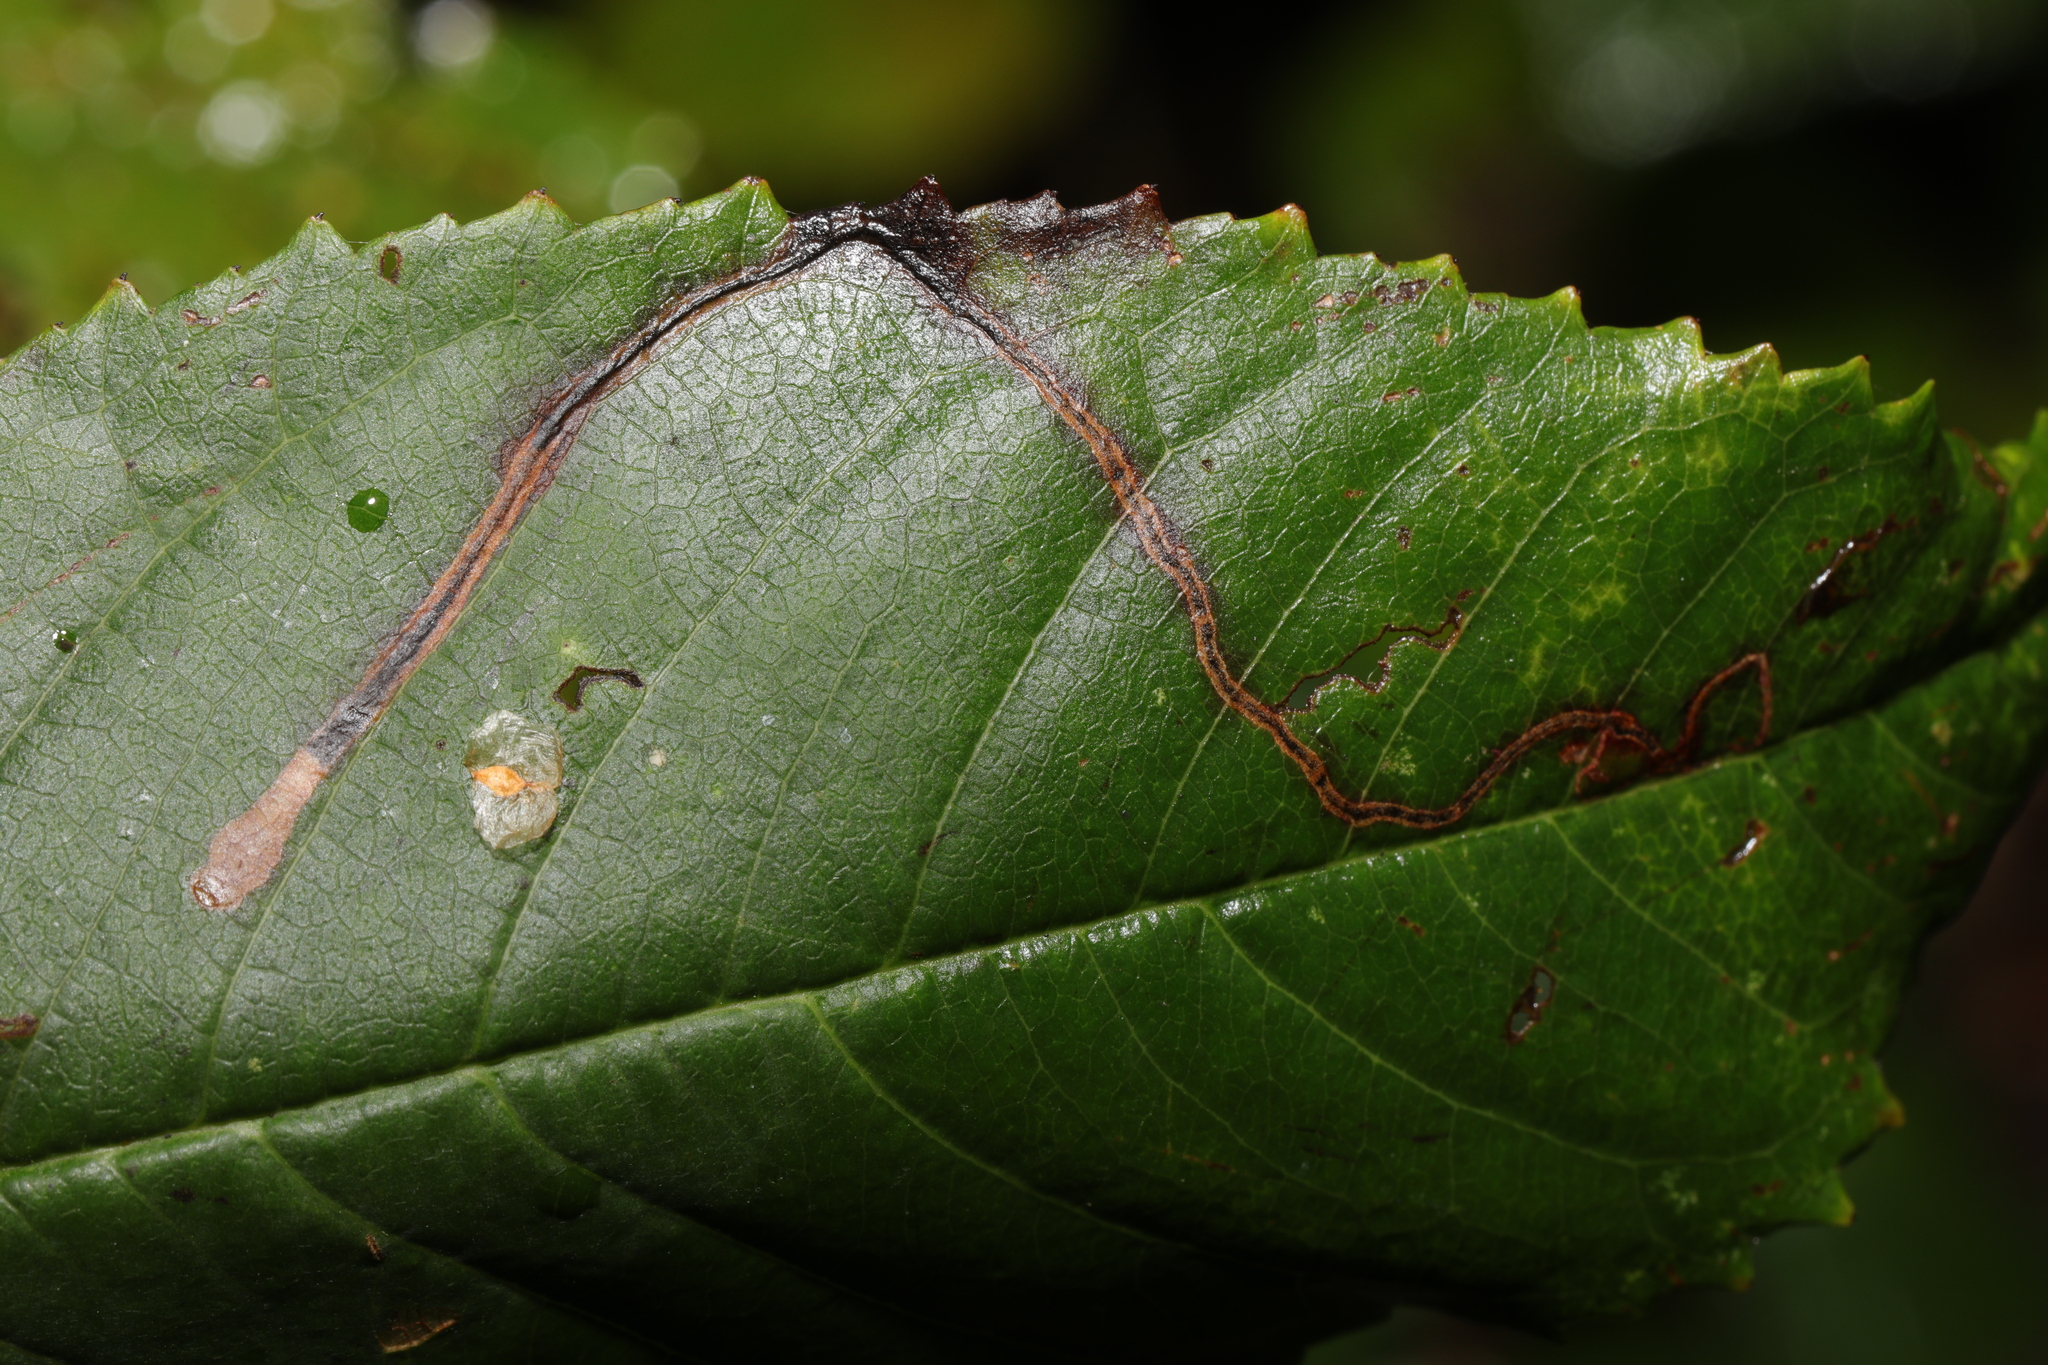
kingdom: Animalia
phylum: Arthropoda
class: Insecta
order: Lepidoptera
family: Lyonetiidae
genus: Lyonetia
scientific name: Lyonetia clerkella
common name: Apple leaf miner
